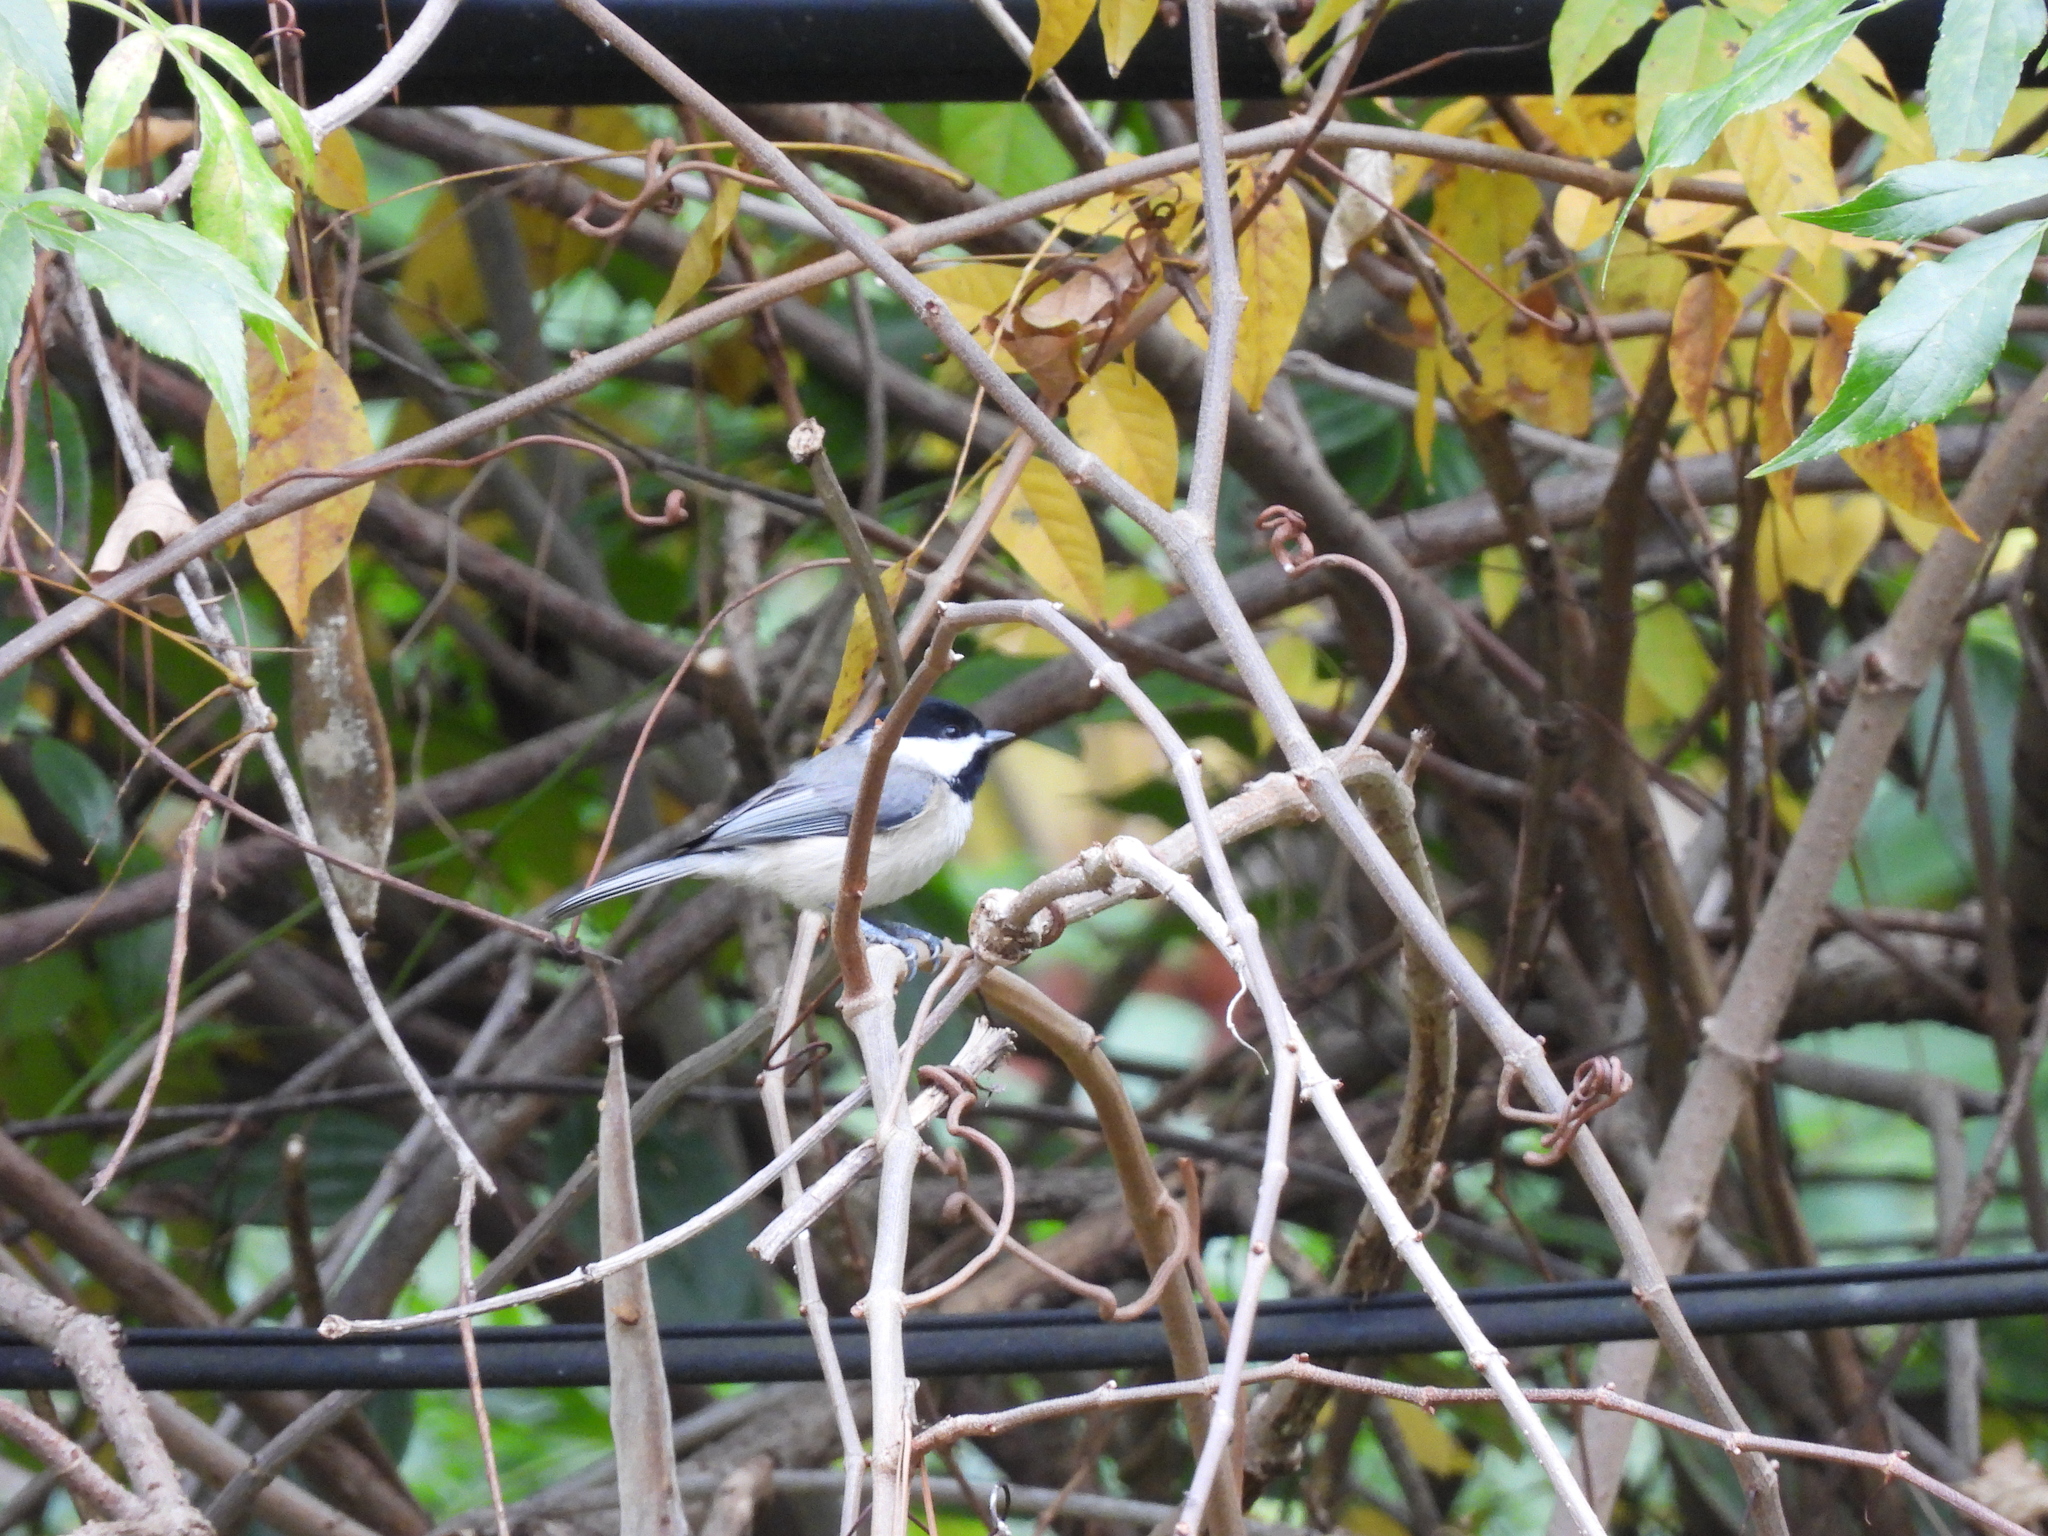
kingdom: Animalia
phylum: Chordata
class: Aves
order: Passeriformes
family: Paridae
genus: Poecile
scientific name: Poecile carolinensis
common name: Carolina chickadee
